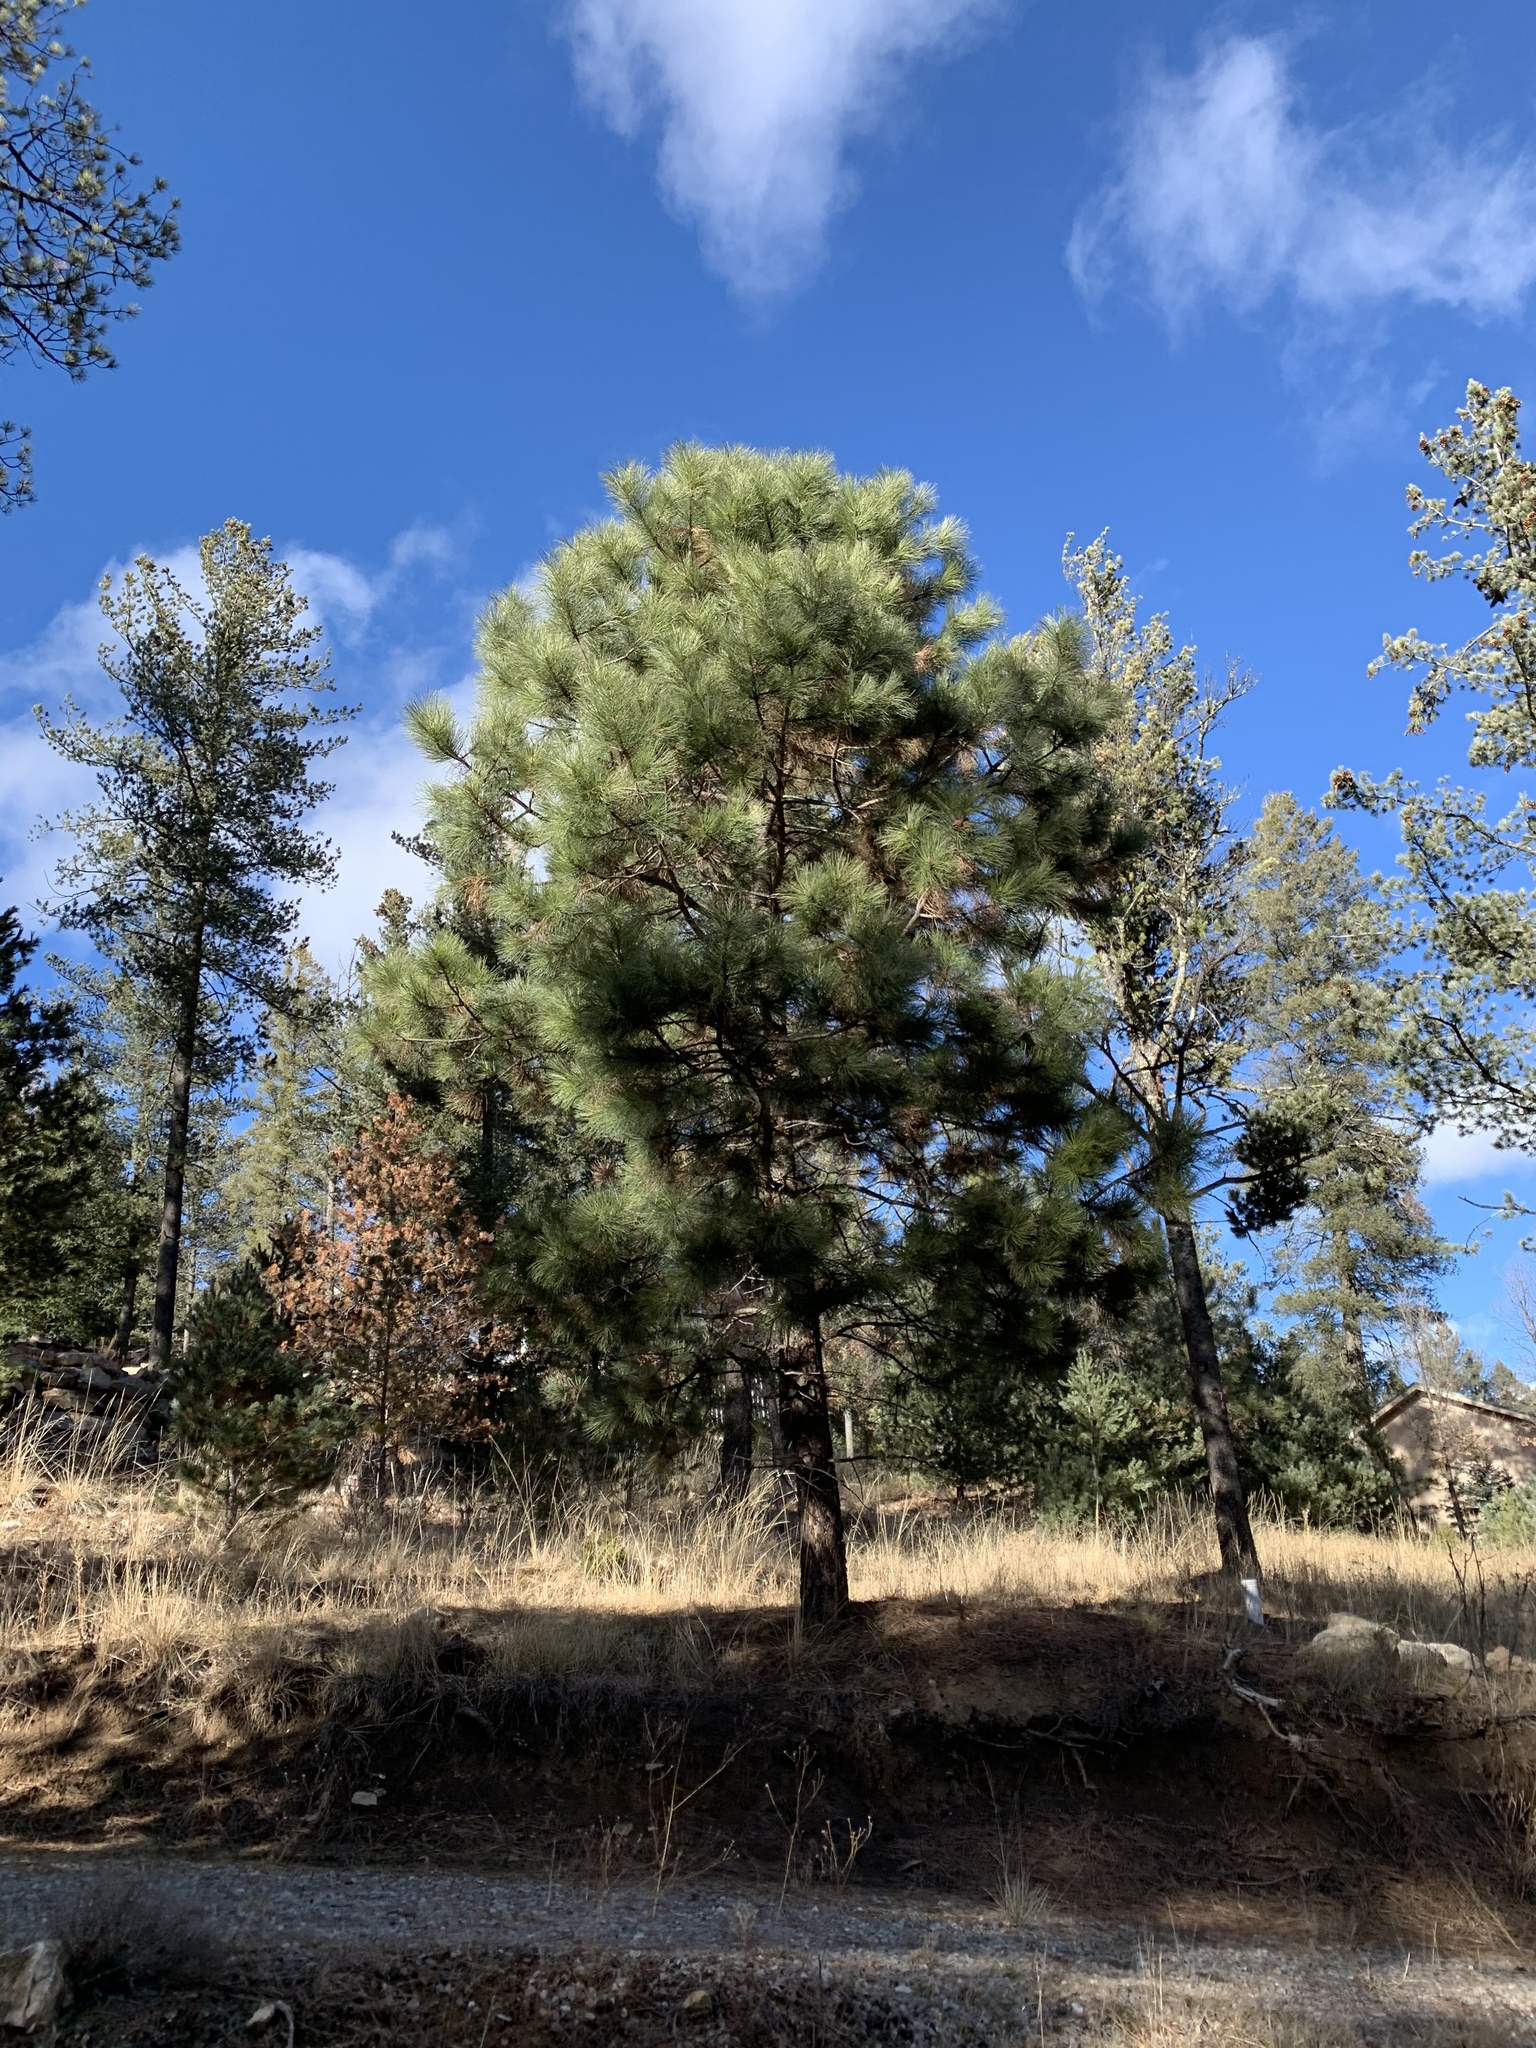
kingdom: Plantae
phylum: Tracheophyta
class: Pinopsida
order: Pinales
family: Pinaceae
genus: Pinus
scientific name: Pinus ponderosa
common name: Western yellow-pine
